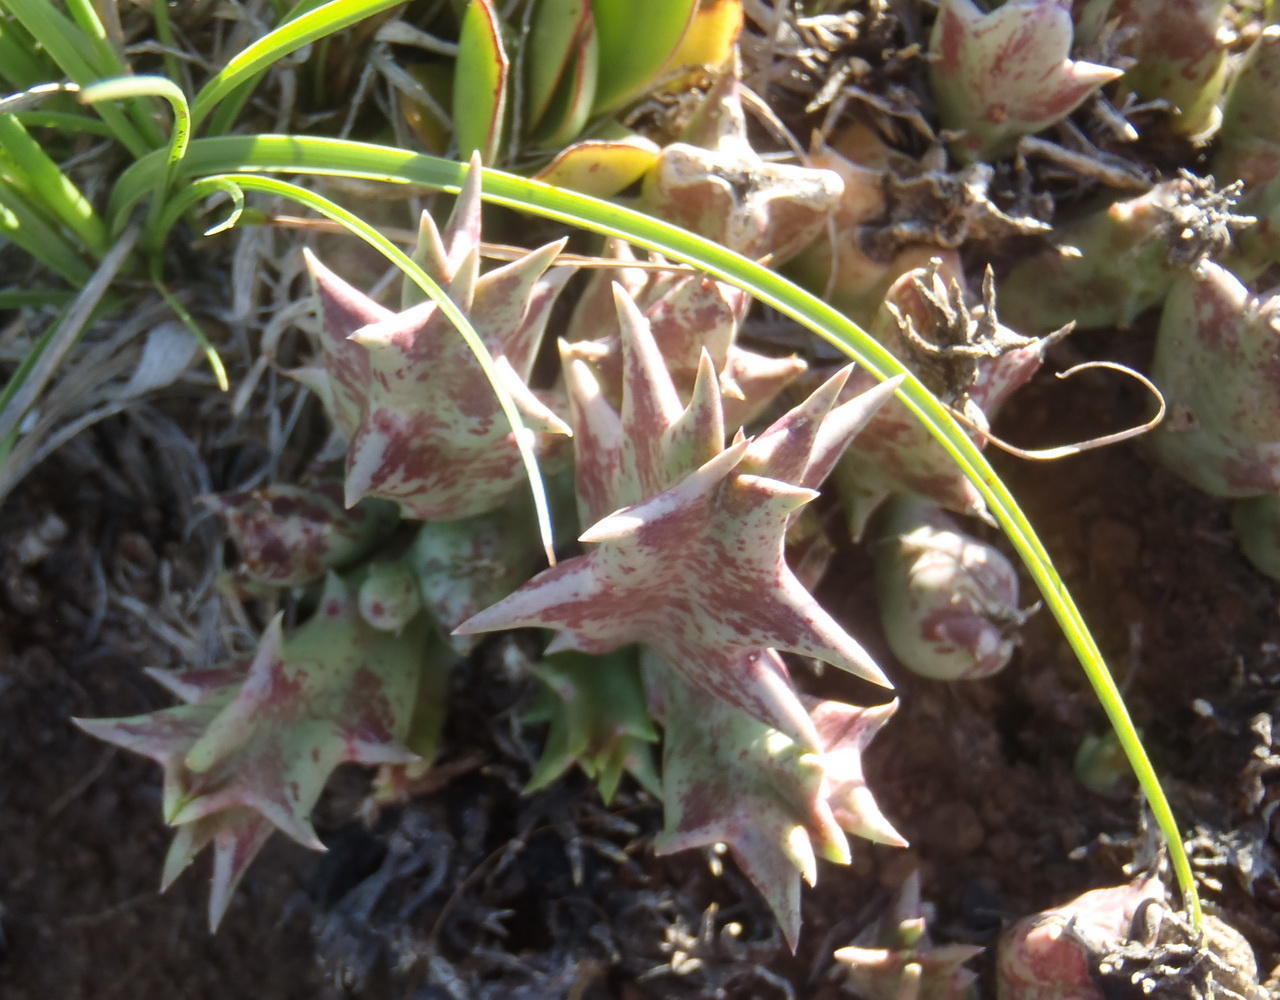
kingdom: Plantae
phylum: Tracheophyta
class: Magnoliopsida
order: Gentianales
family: Apocynaceae
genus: Ceropegia
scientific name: Ceropegia lutea
